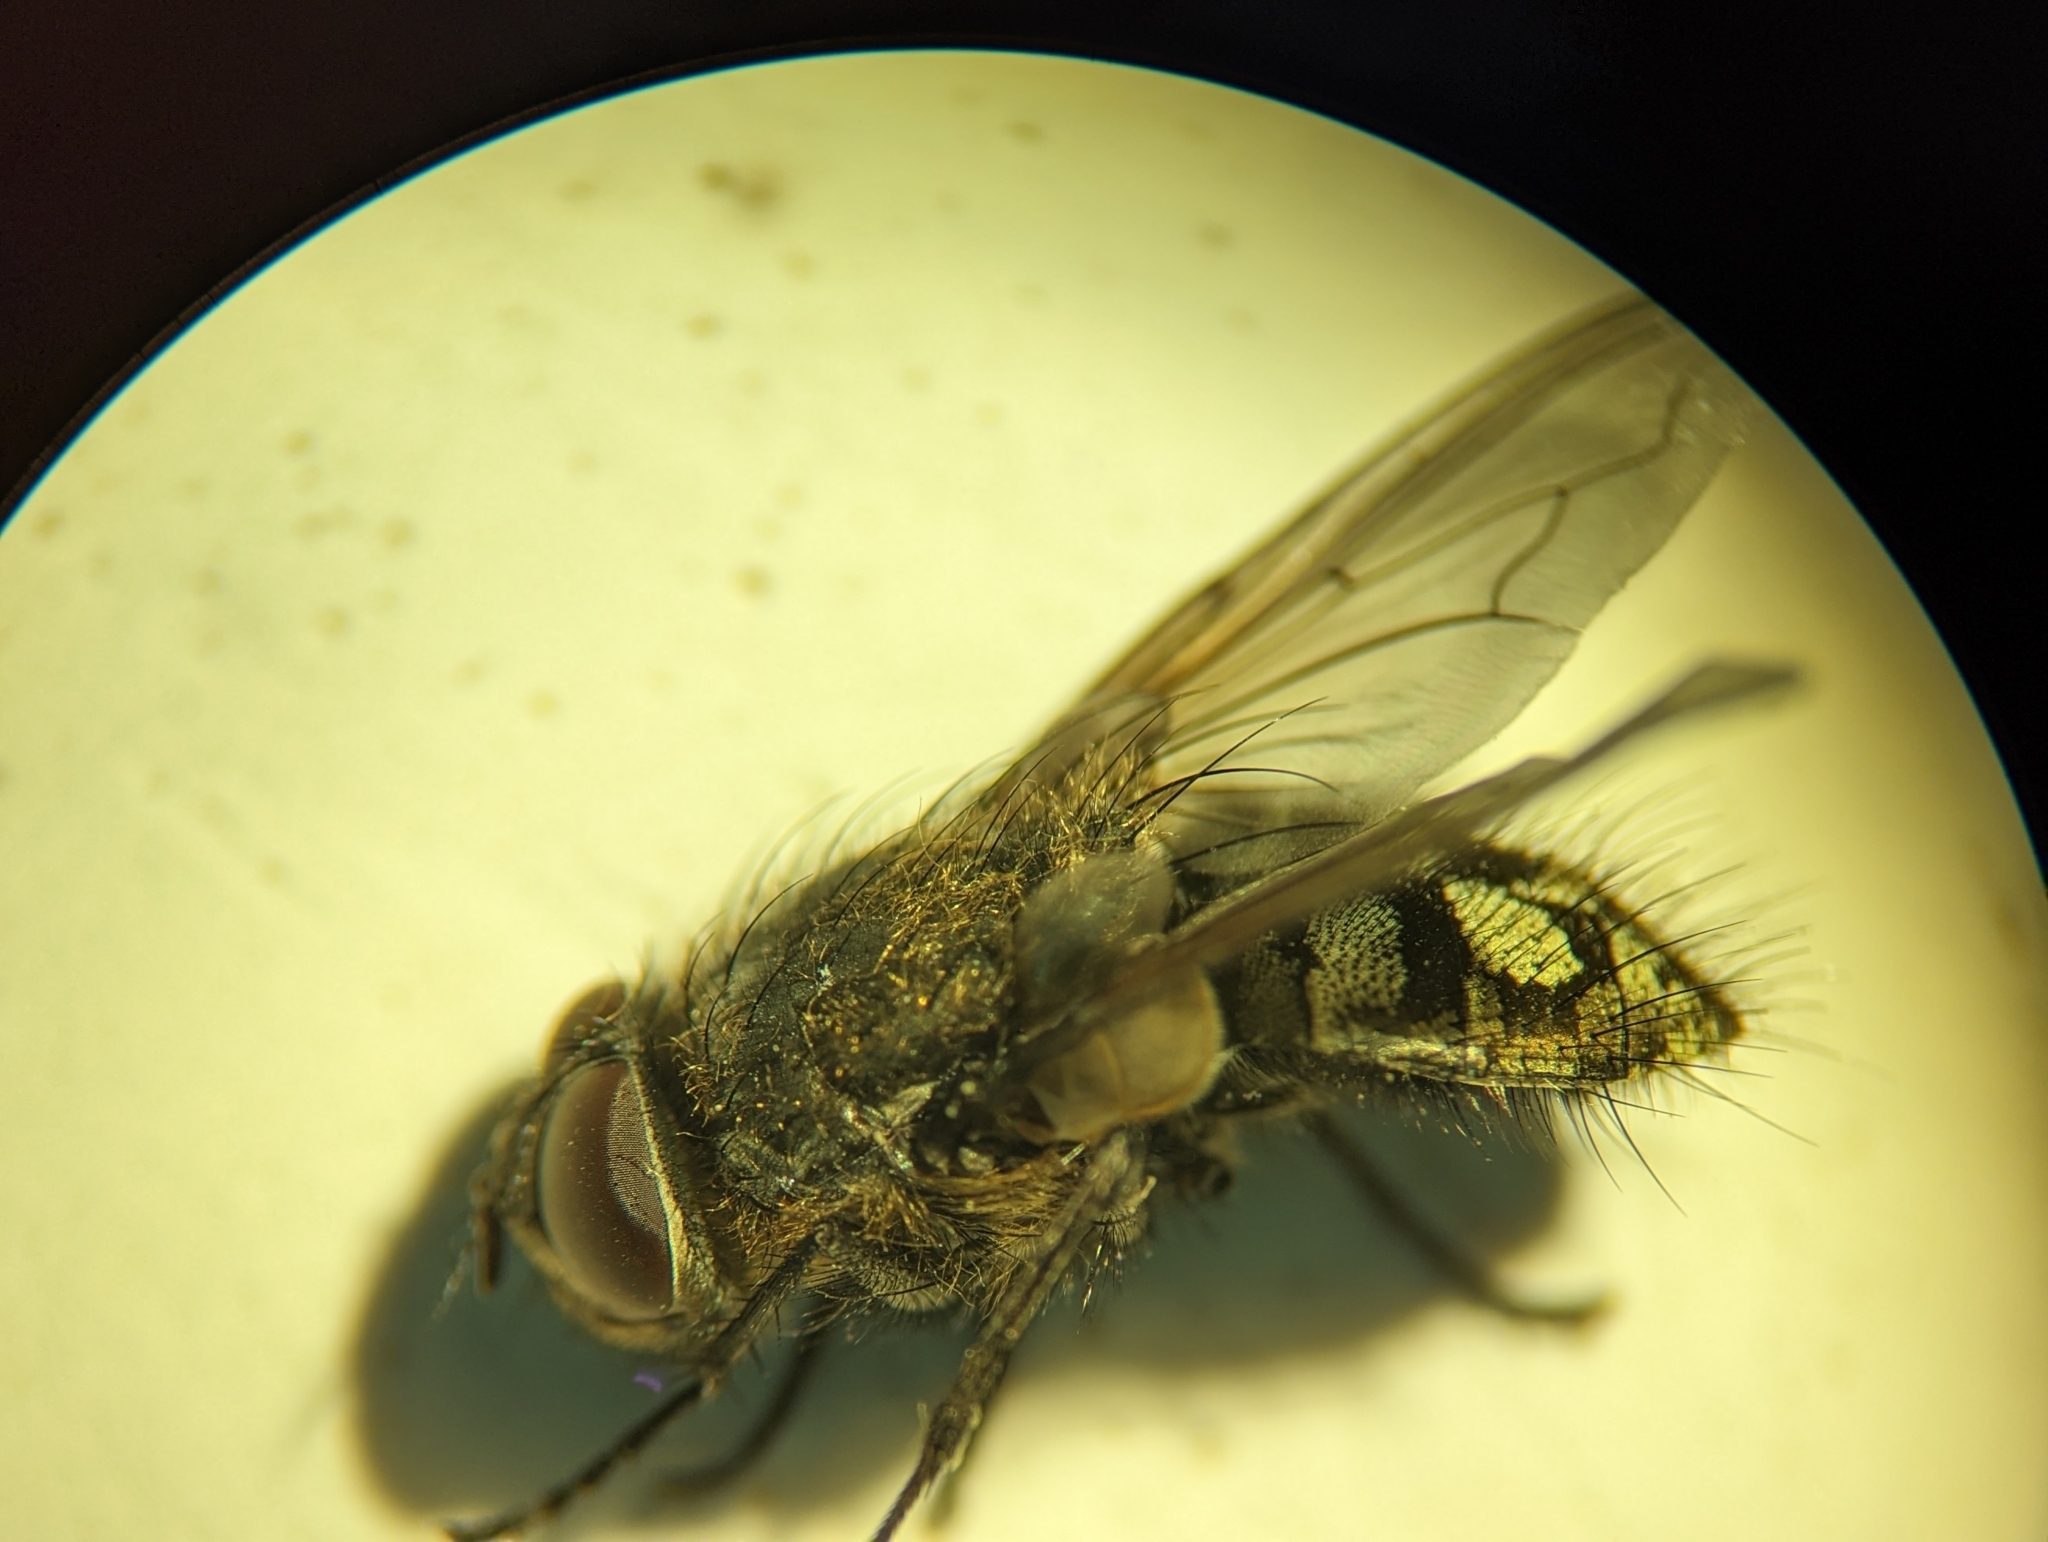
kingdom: Animalia
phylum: Arthropoda
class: Insecta
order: Diptera
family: Polleniidae
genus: Pollenia
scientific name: Pollenia pediculata
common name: Tufted clusterfly
